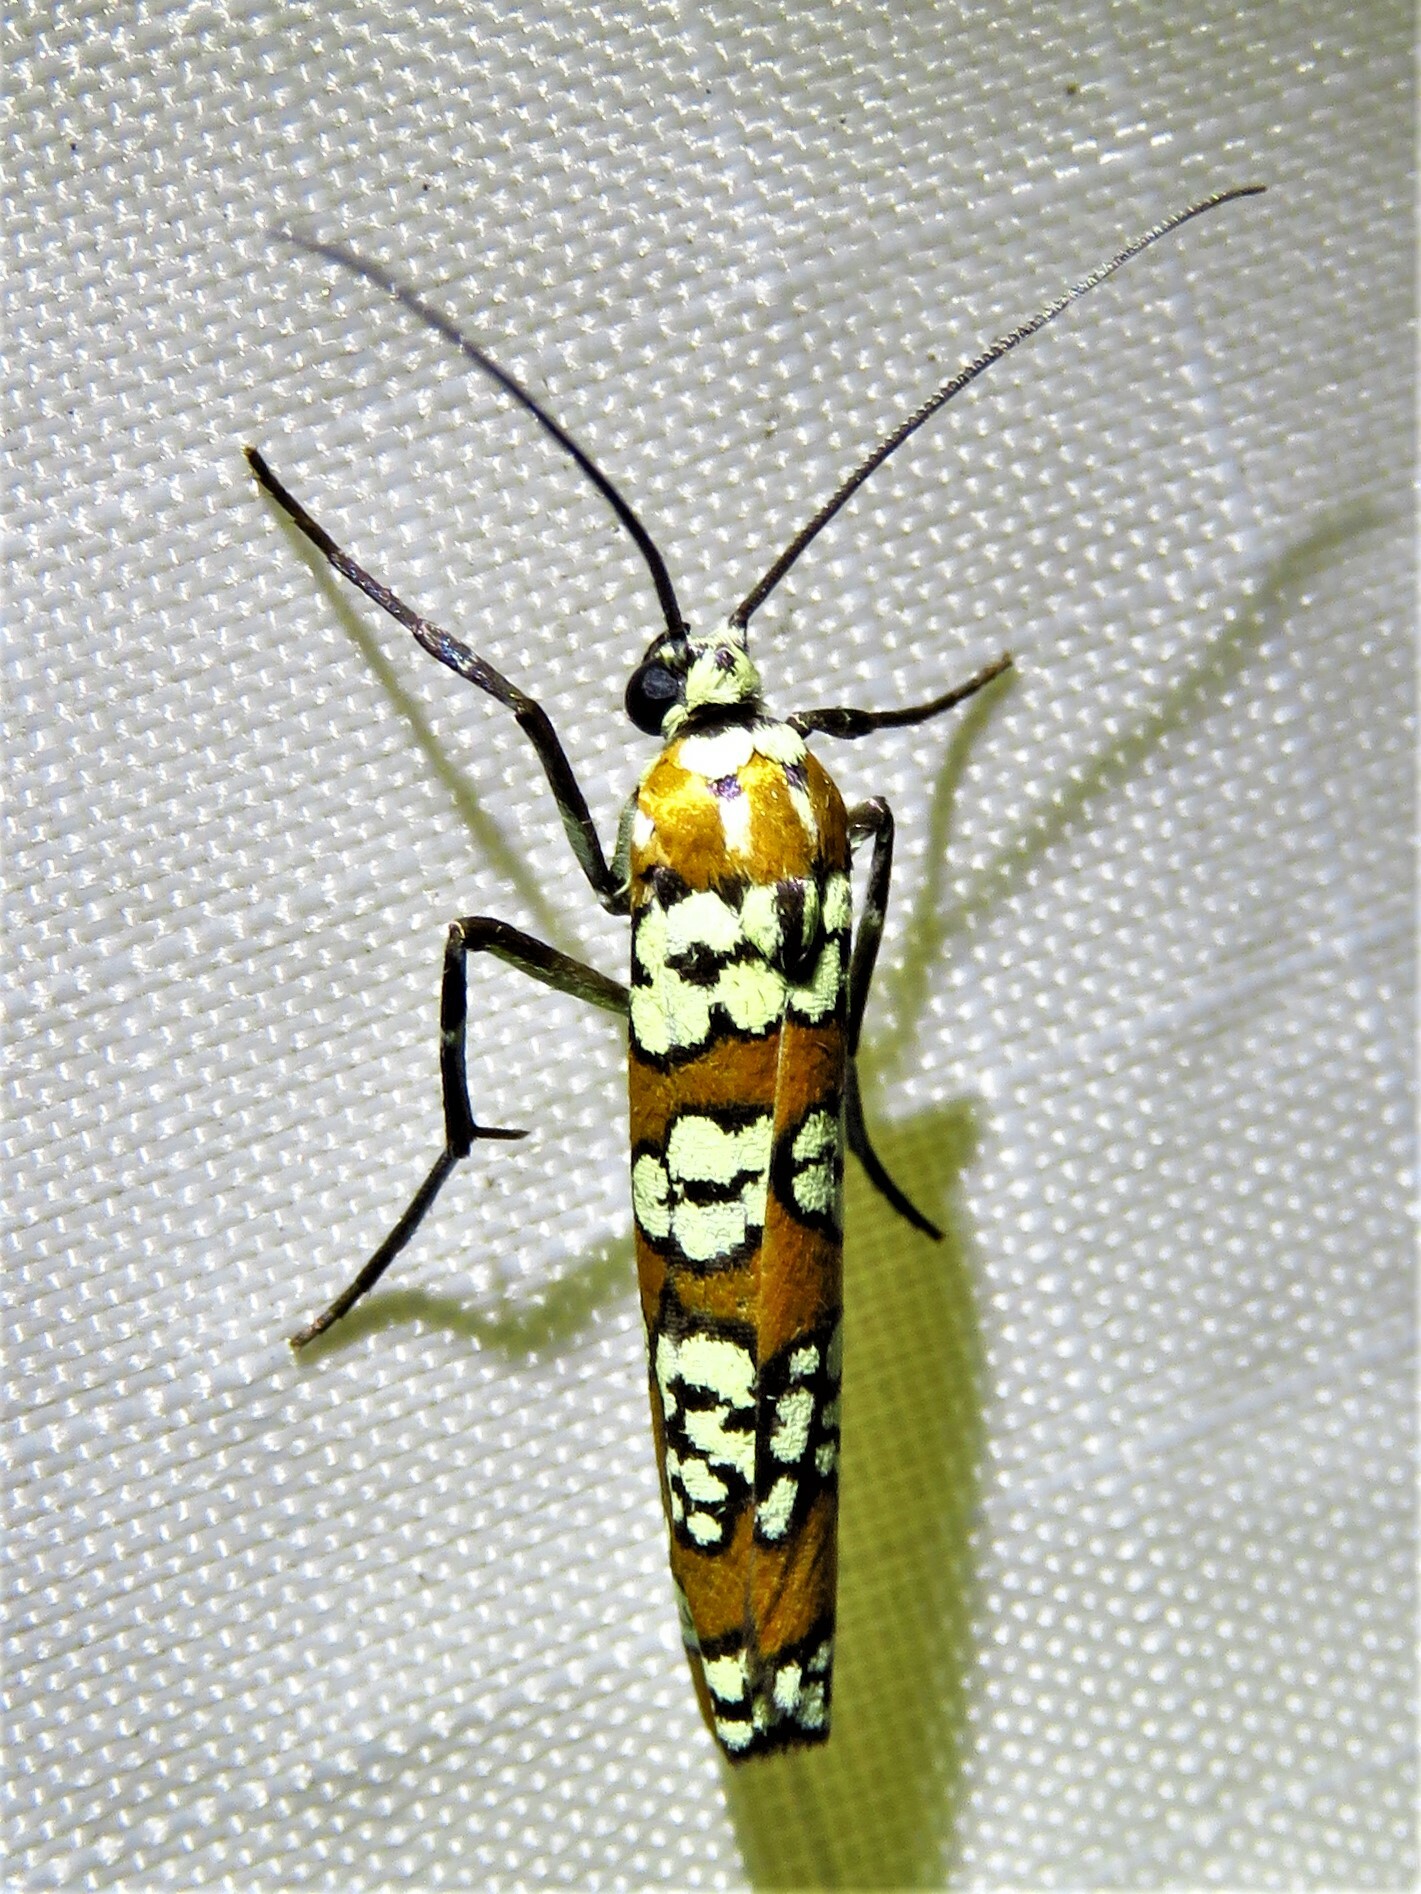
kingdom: Animalia
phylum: Arthropoda
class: Insecta
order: Lepidoptera
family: Attevidae
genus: Atteva
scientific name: Atteva punctella
